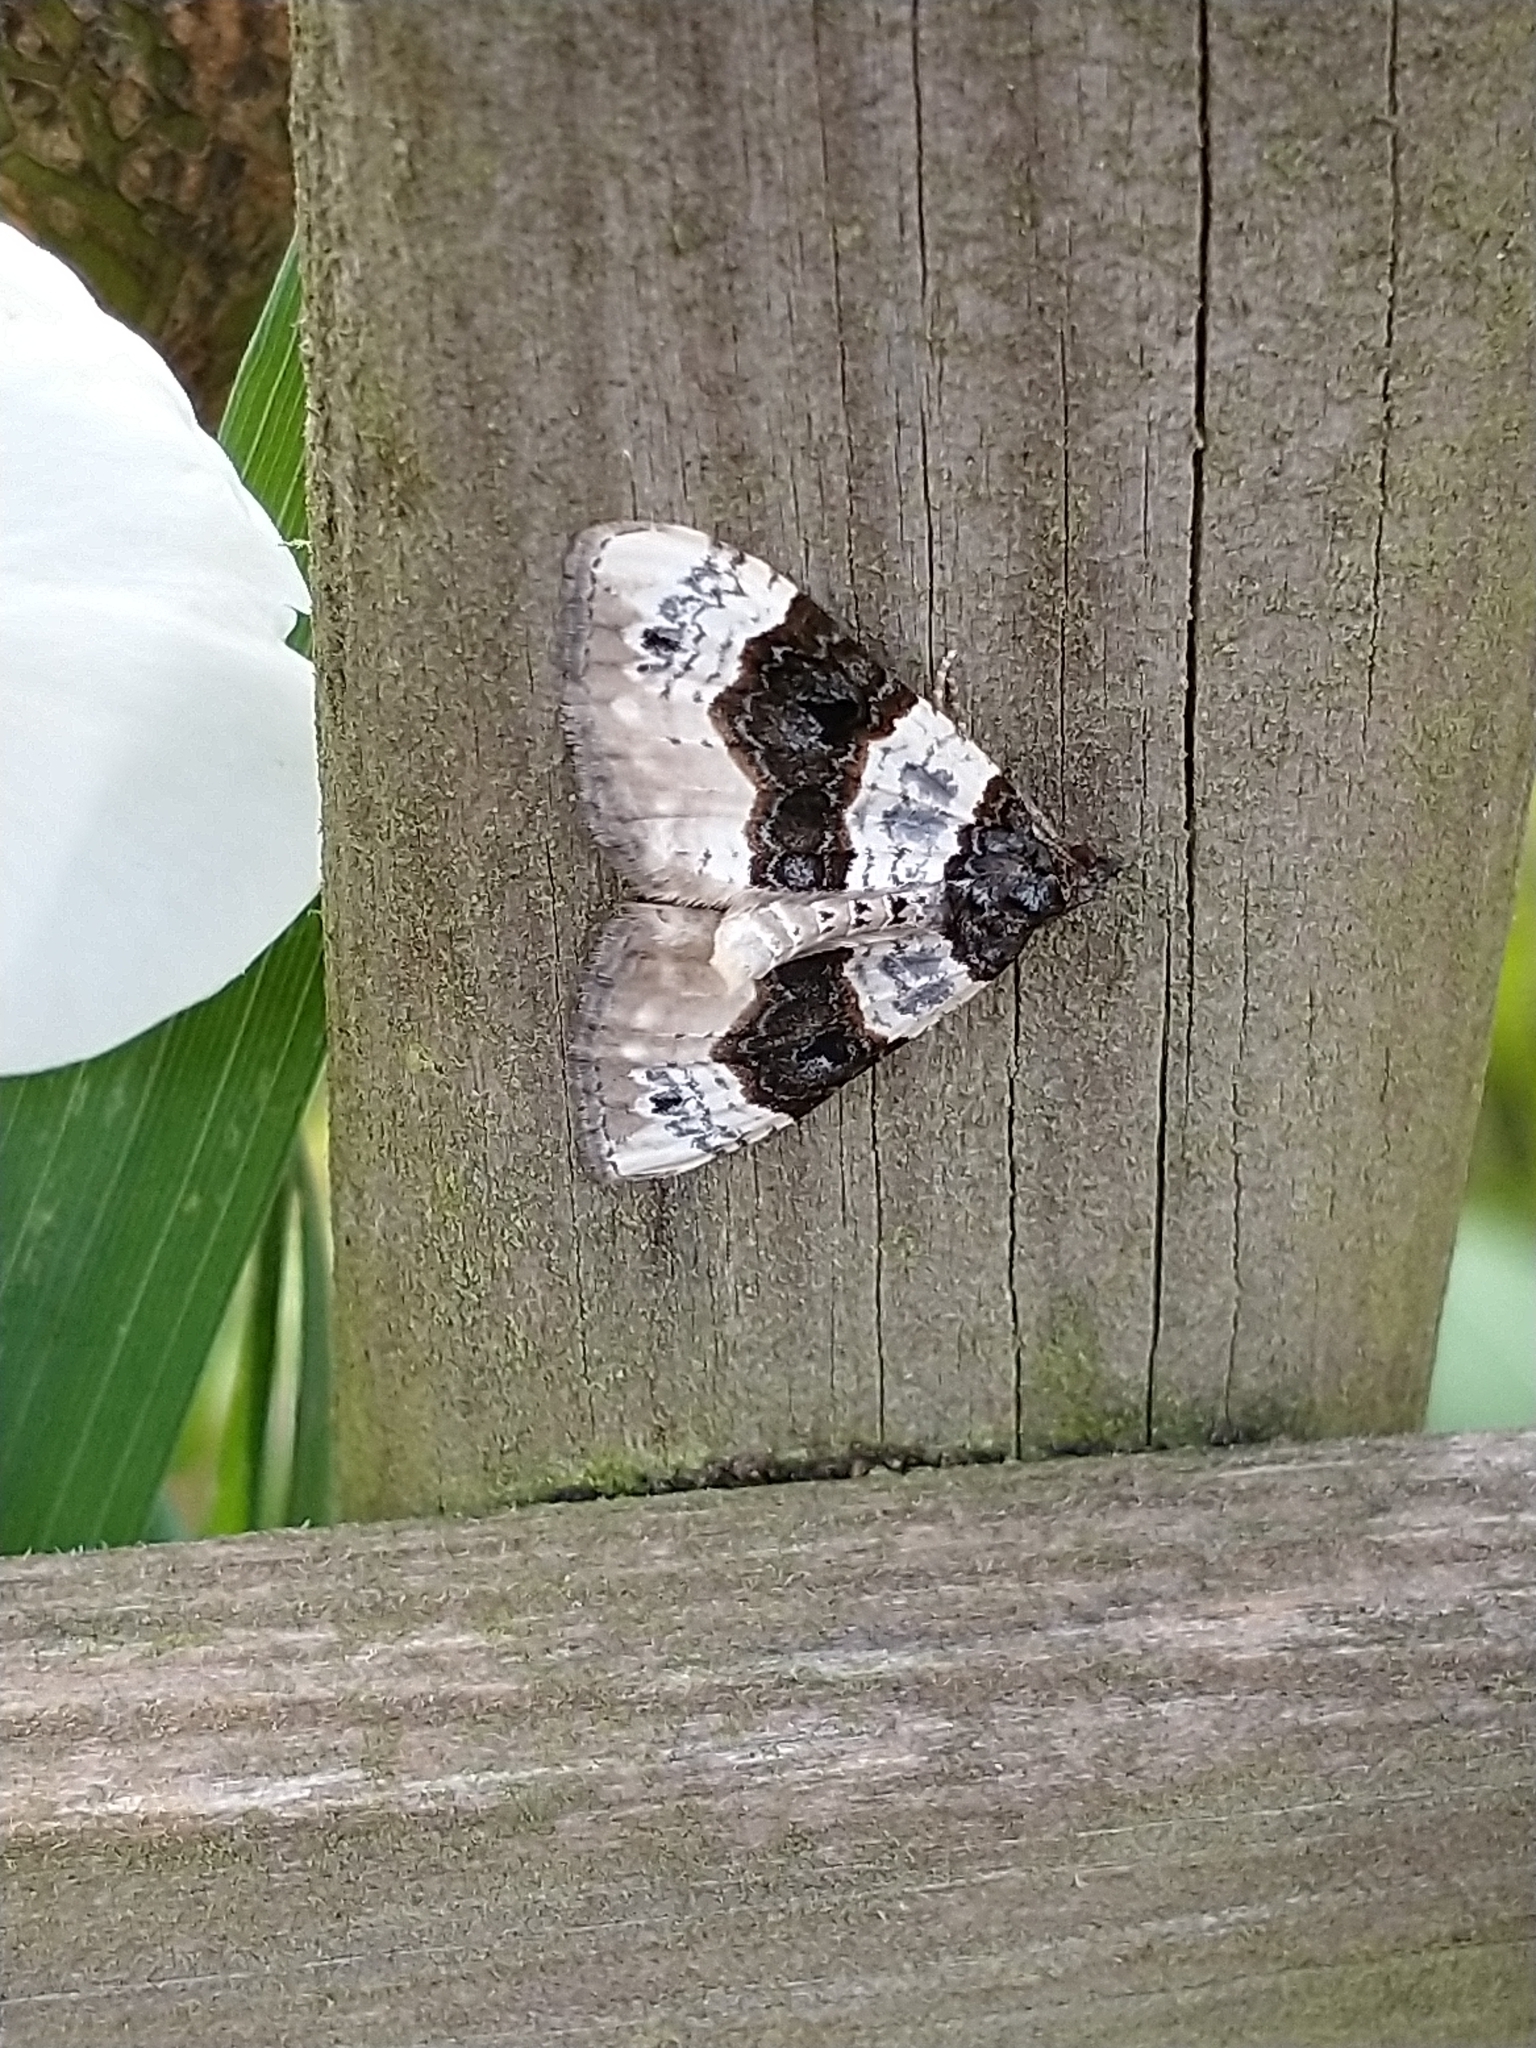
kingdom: Animalia
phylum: Arthropoda
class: Insecta
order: Lepidoptera
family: Geometridae
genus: Cosmorhoe
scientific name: Cosmorhoe ocellata
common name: Purple bar
